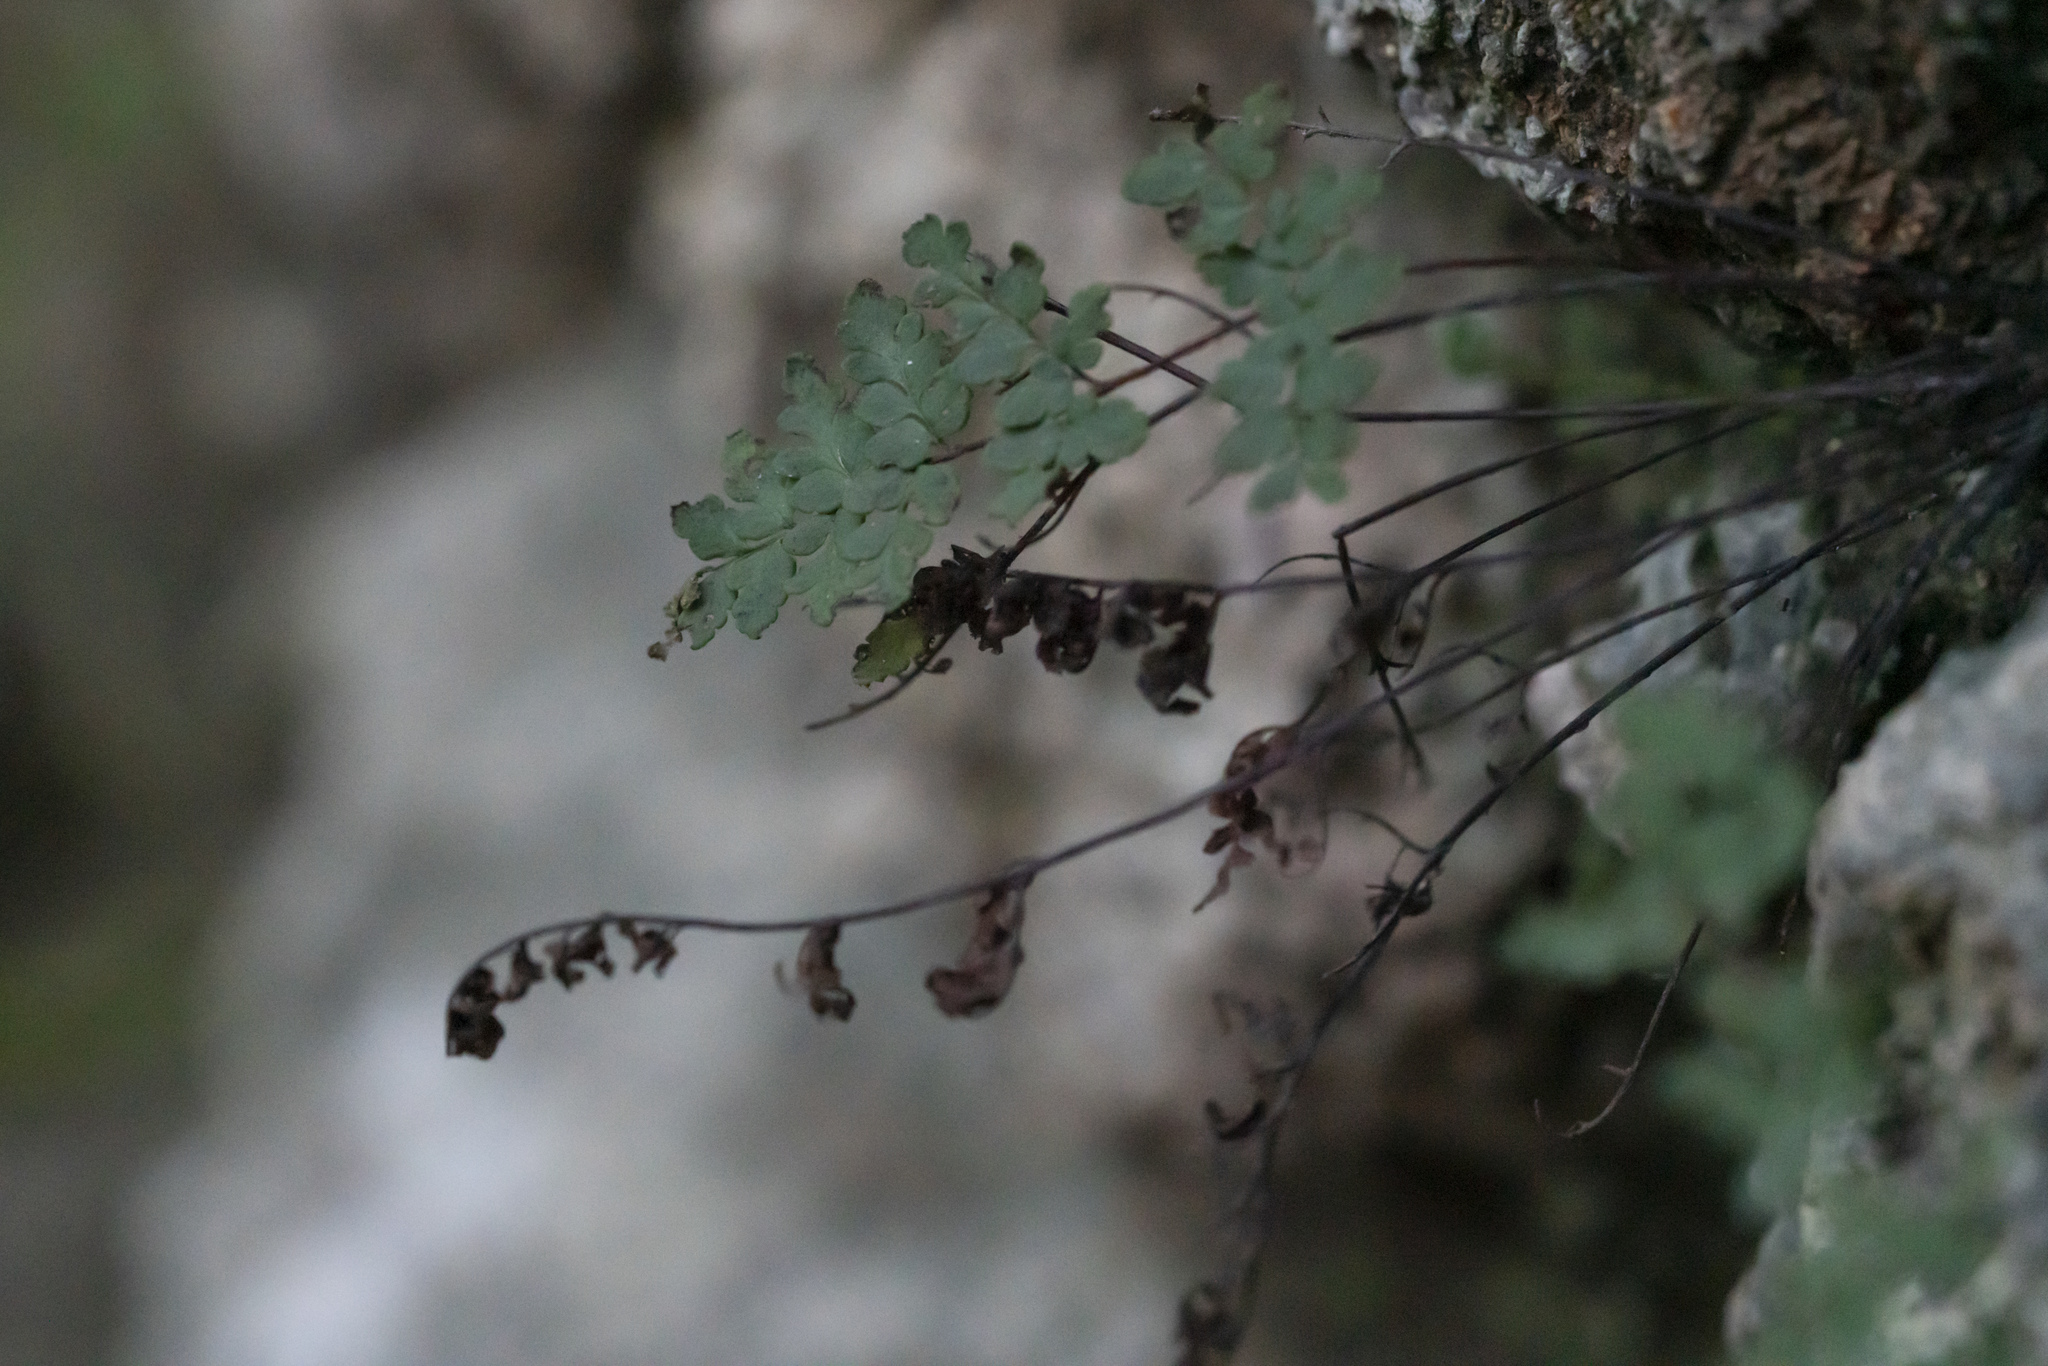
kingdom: Plantae
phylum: Tracheophyta
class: Polypodiopsida
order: Polypodiales
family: Pteridaceae
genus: Oeosporangium
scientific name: Oeosporangium pteridioides
